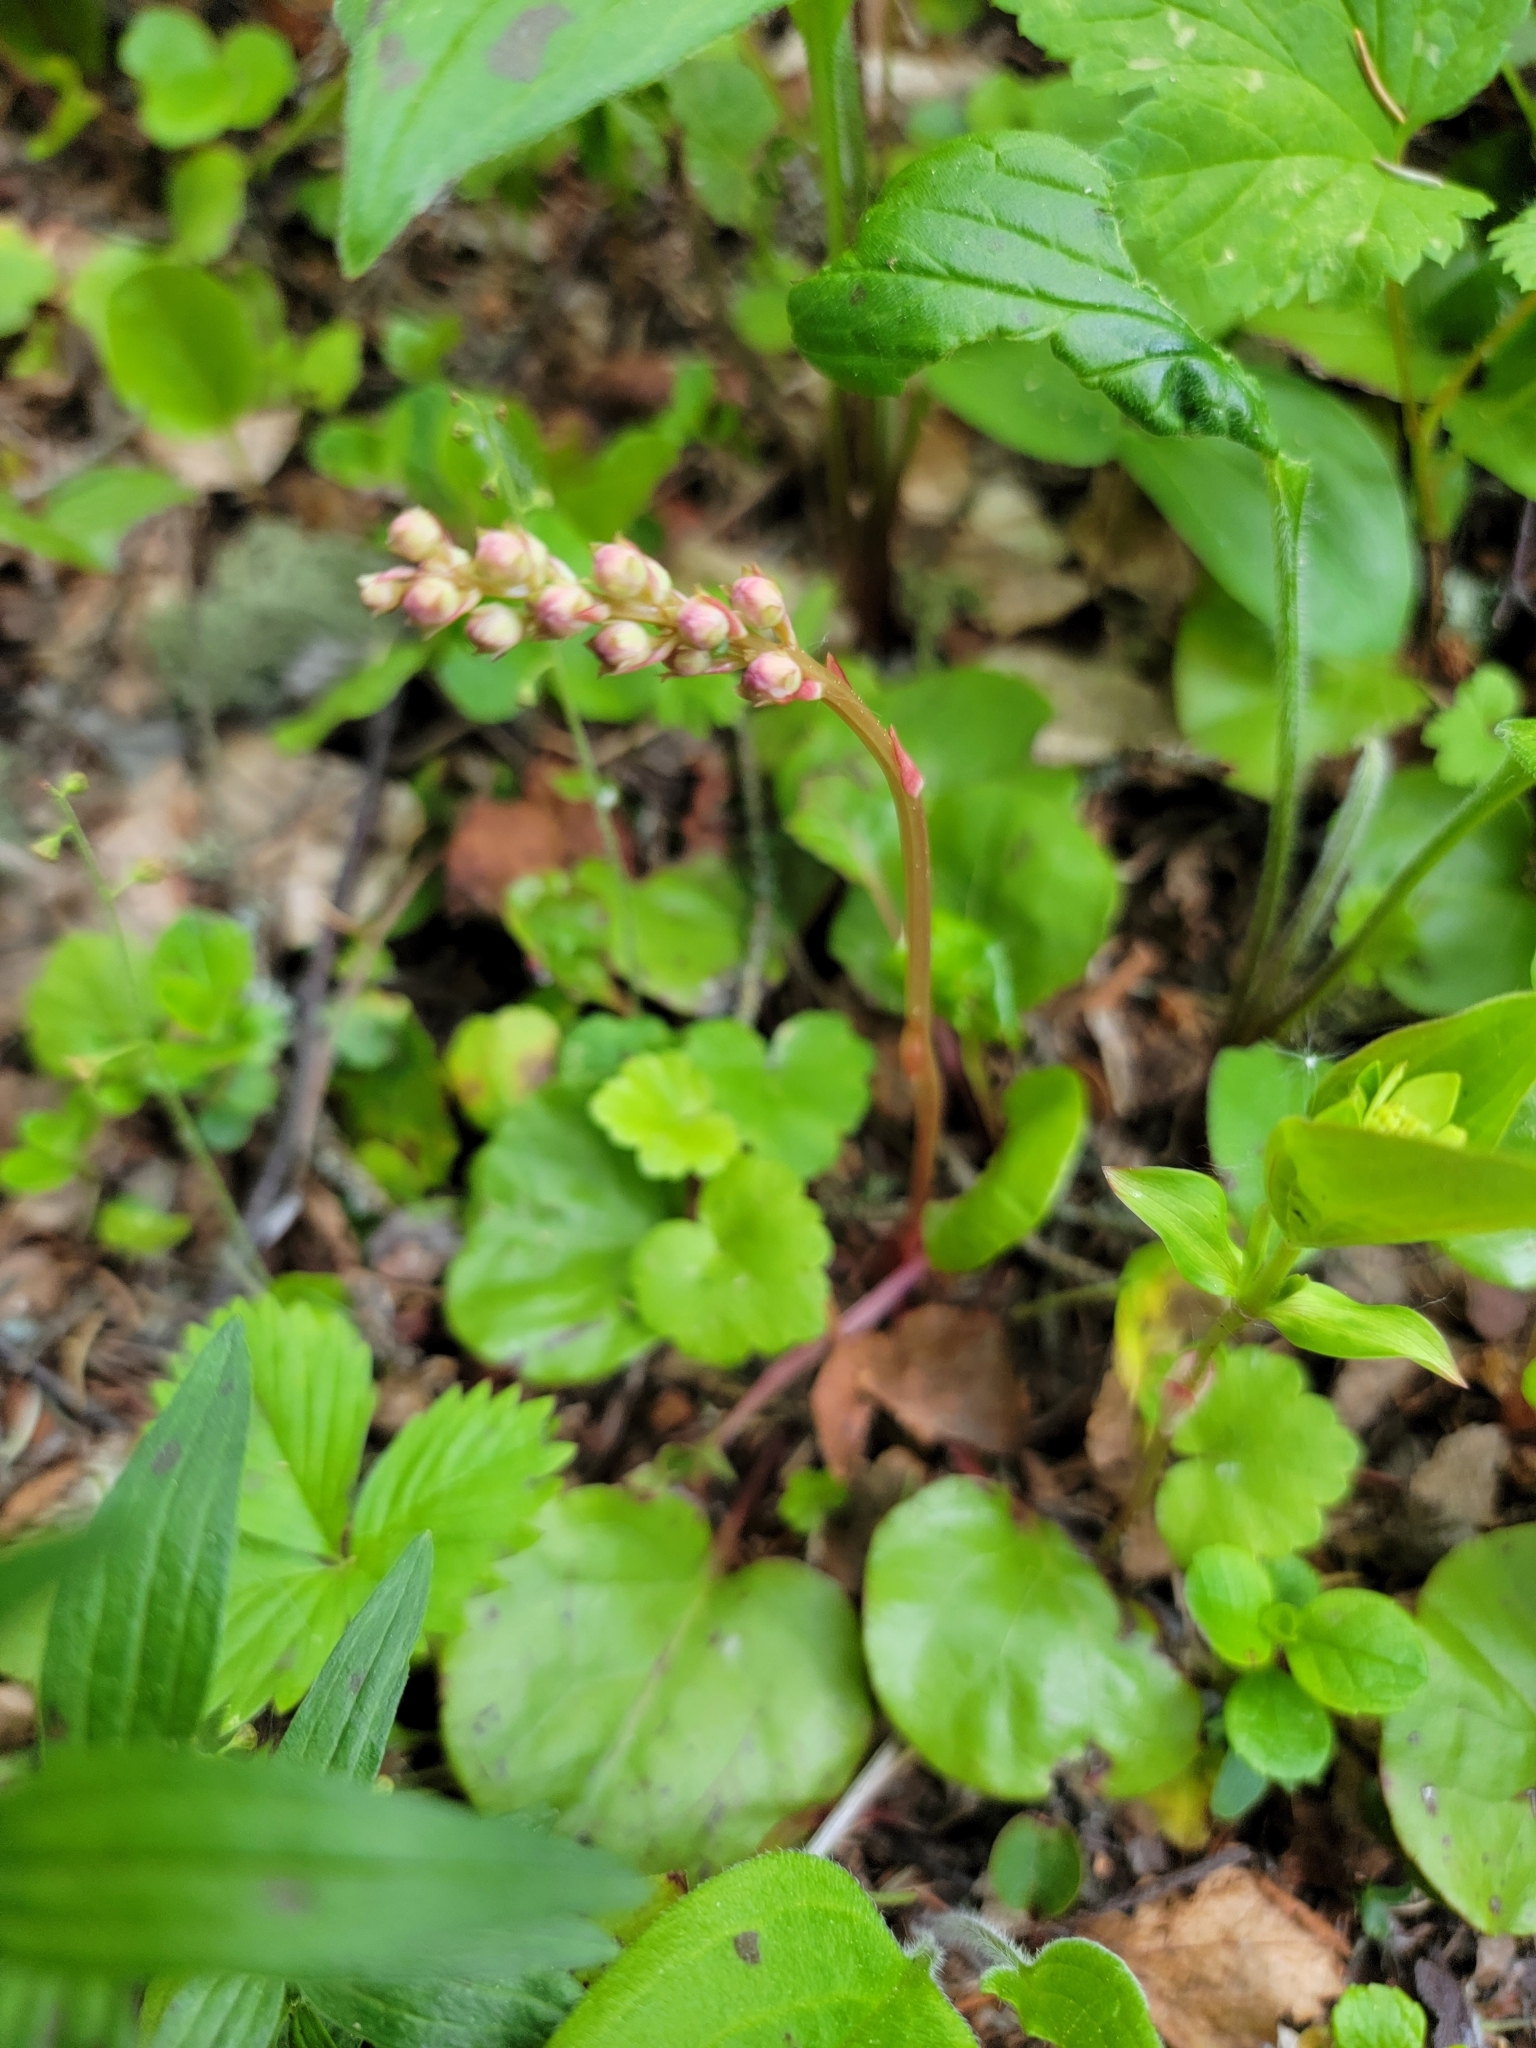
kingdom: Plantae
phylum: Tracheophyta
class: Magnoliopsida
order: Ericales
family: Ericaceae
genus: Pyrola
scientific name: Pyrola asarifolia
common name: Bog wintergreen
